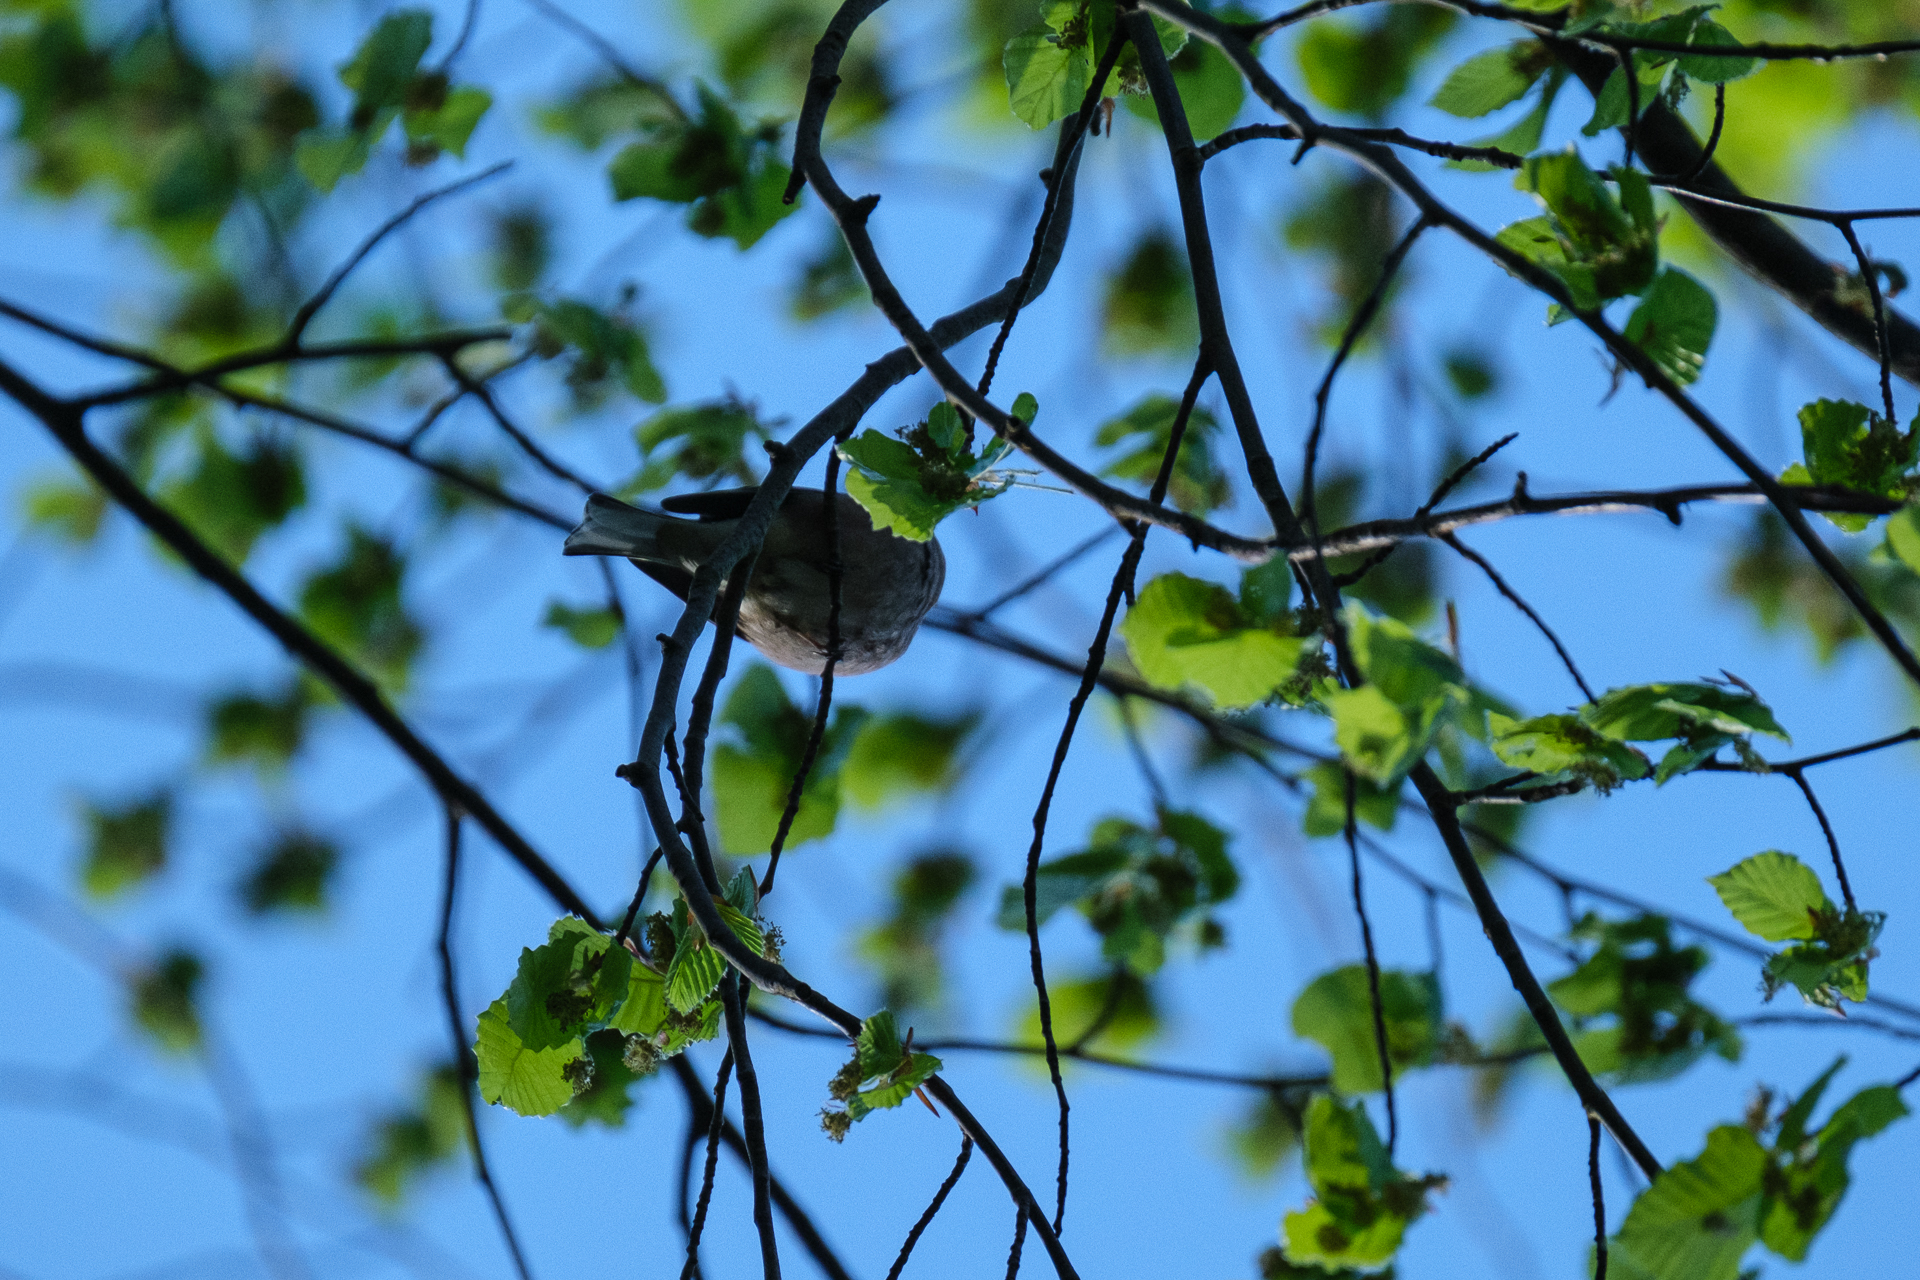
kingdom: Animalia
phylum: Chordata
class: Aves
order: Passeriformes
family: Fringillidae
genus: Fringilla
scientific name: Fringilla coelebs
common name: Common chaffinch
